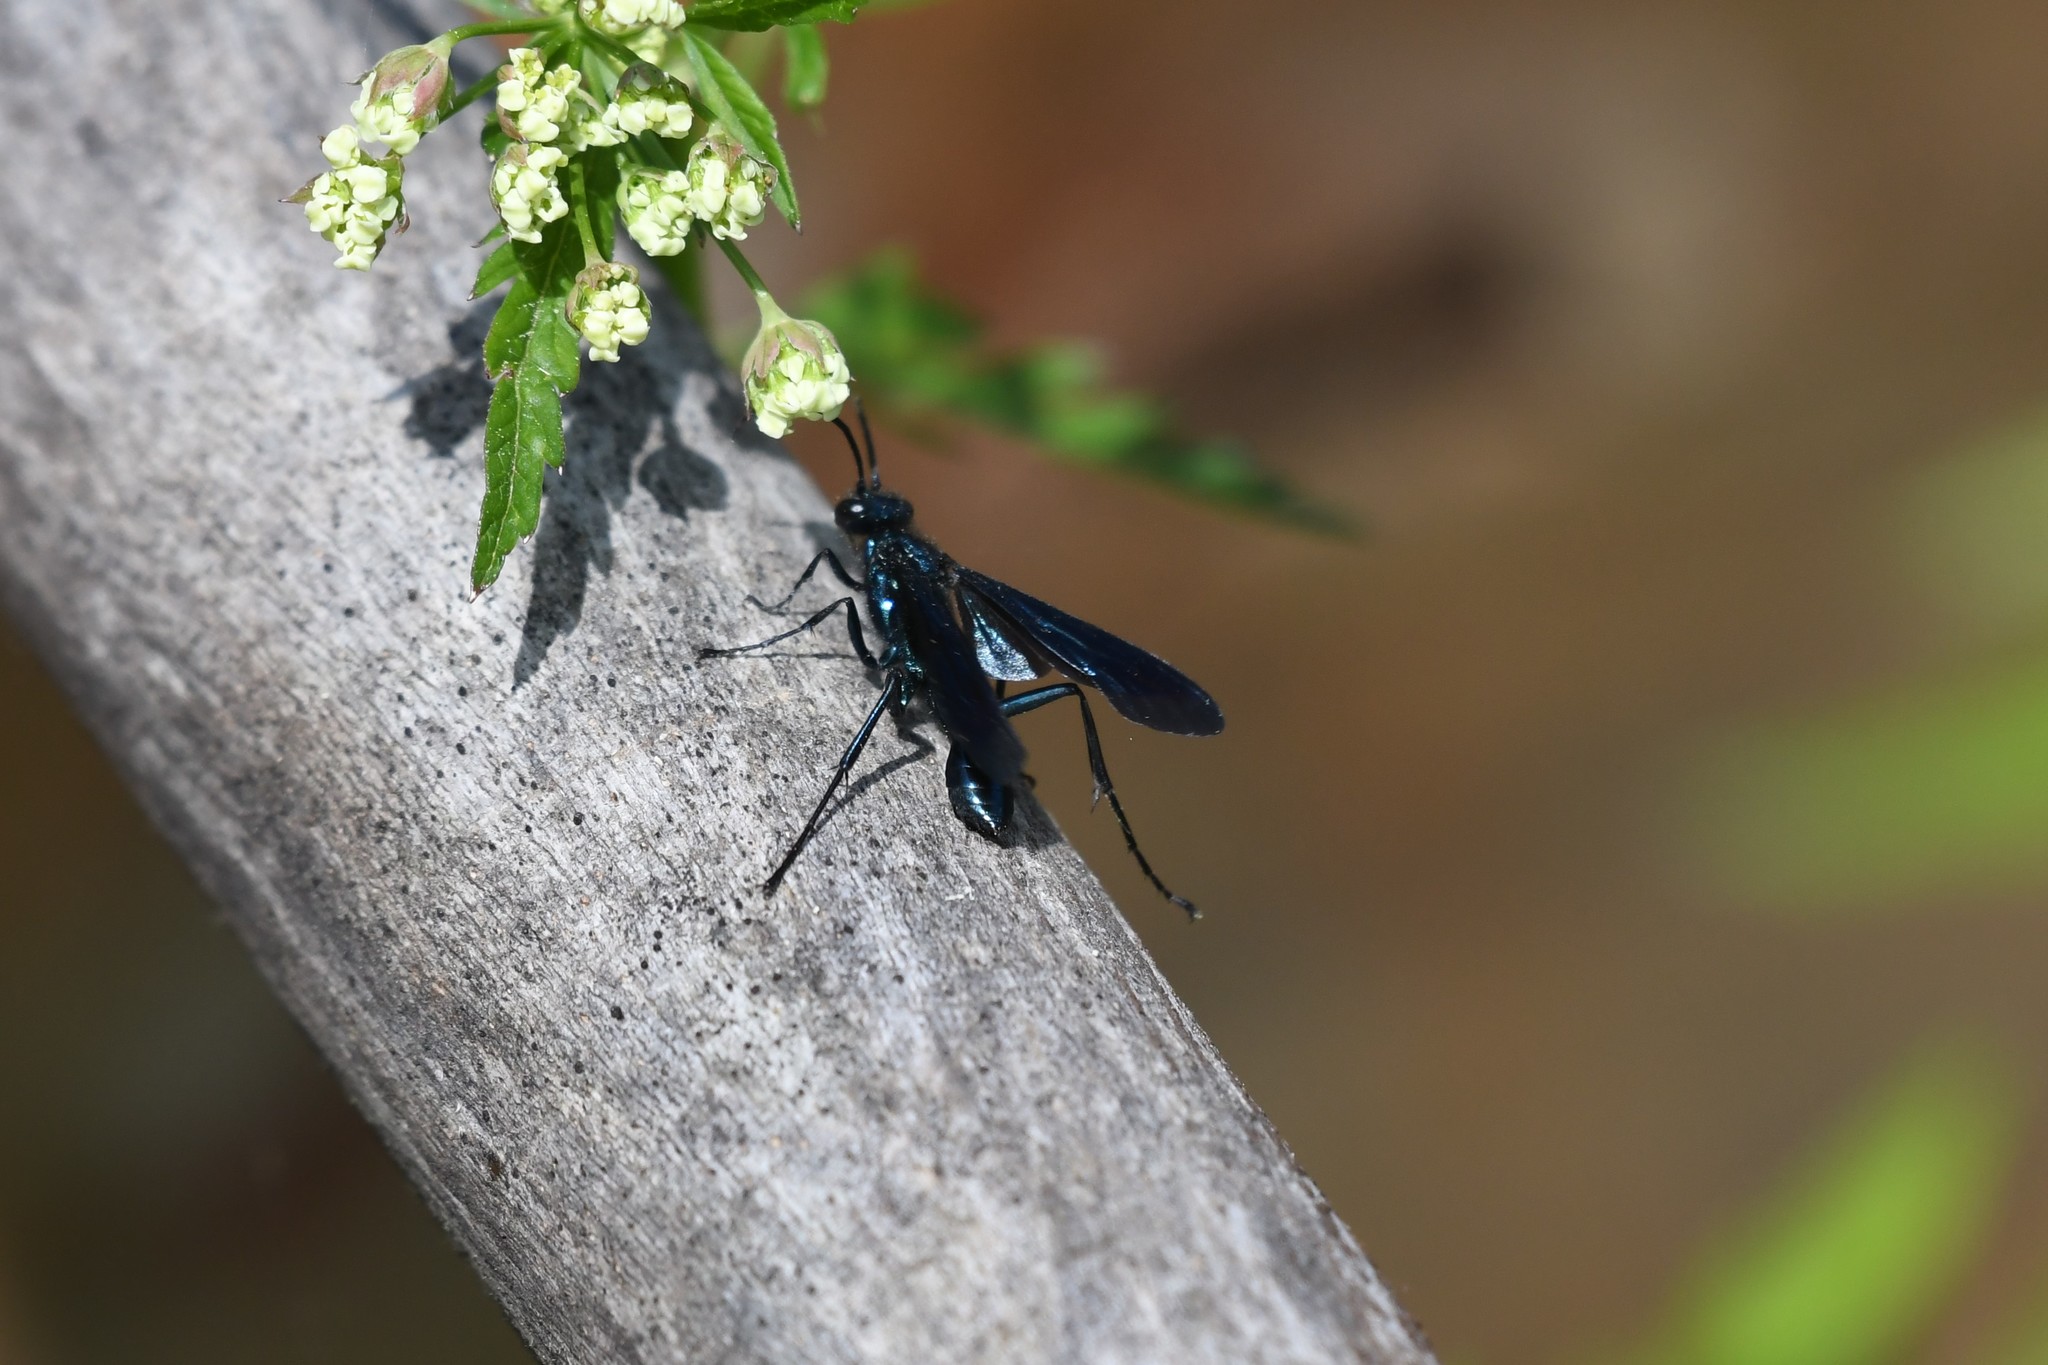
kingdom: Animalia
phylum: Arthropoda
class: Insecta
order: Hymenoptera
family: Sphecidae
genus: Chalybion
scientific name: Chalybion californicum
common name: Mud dauber
